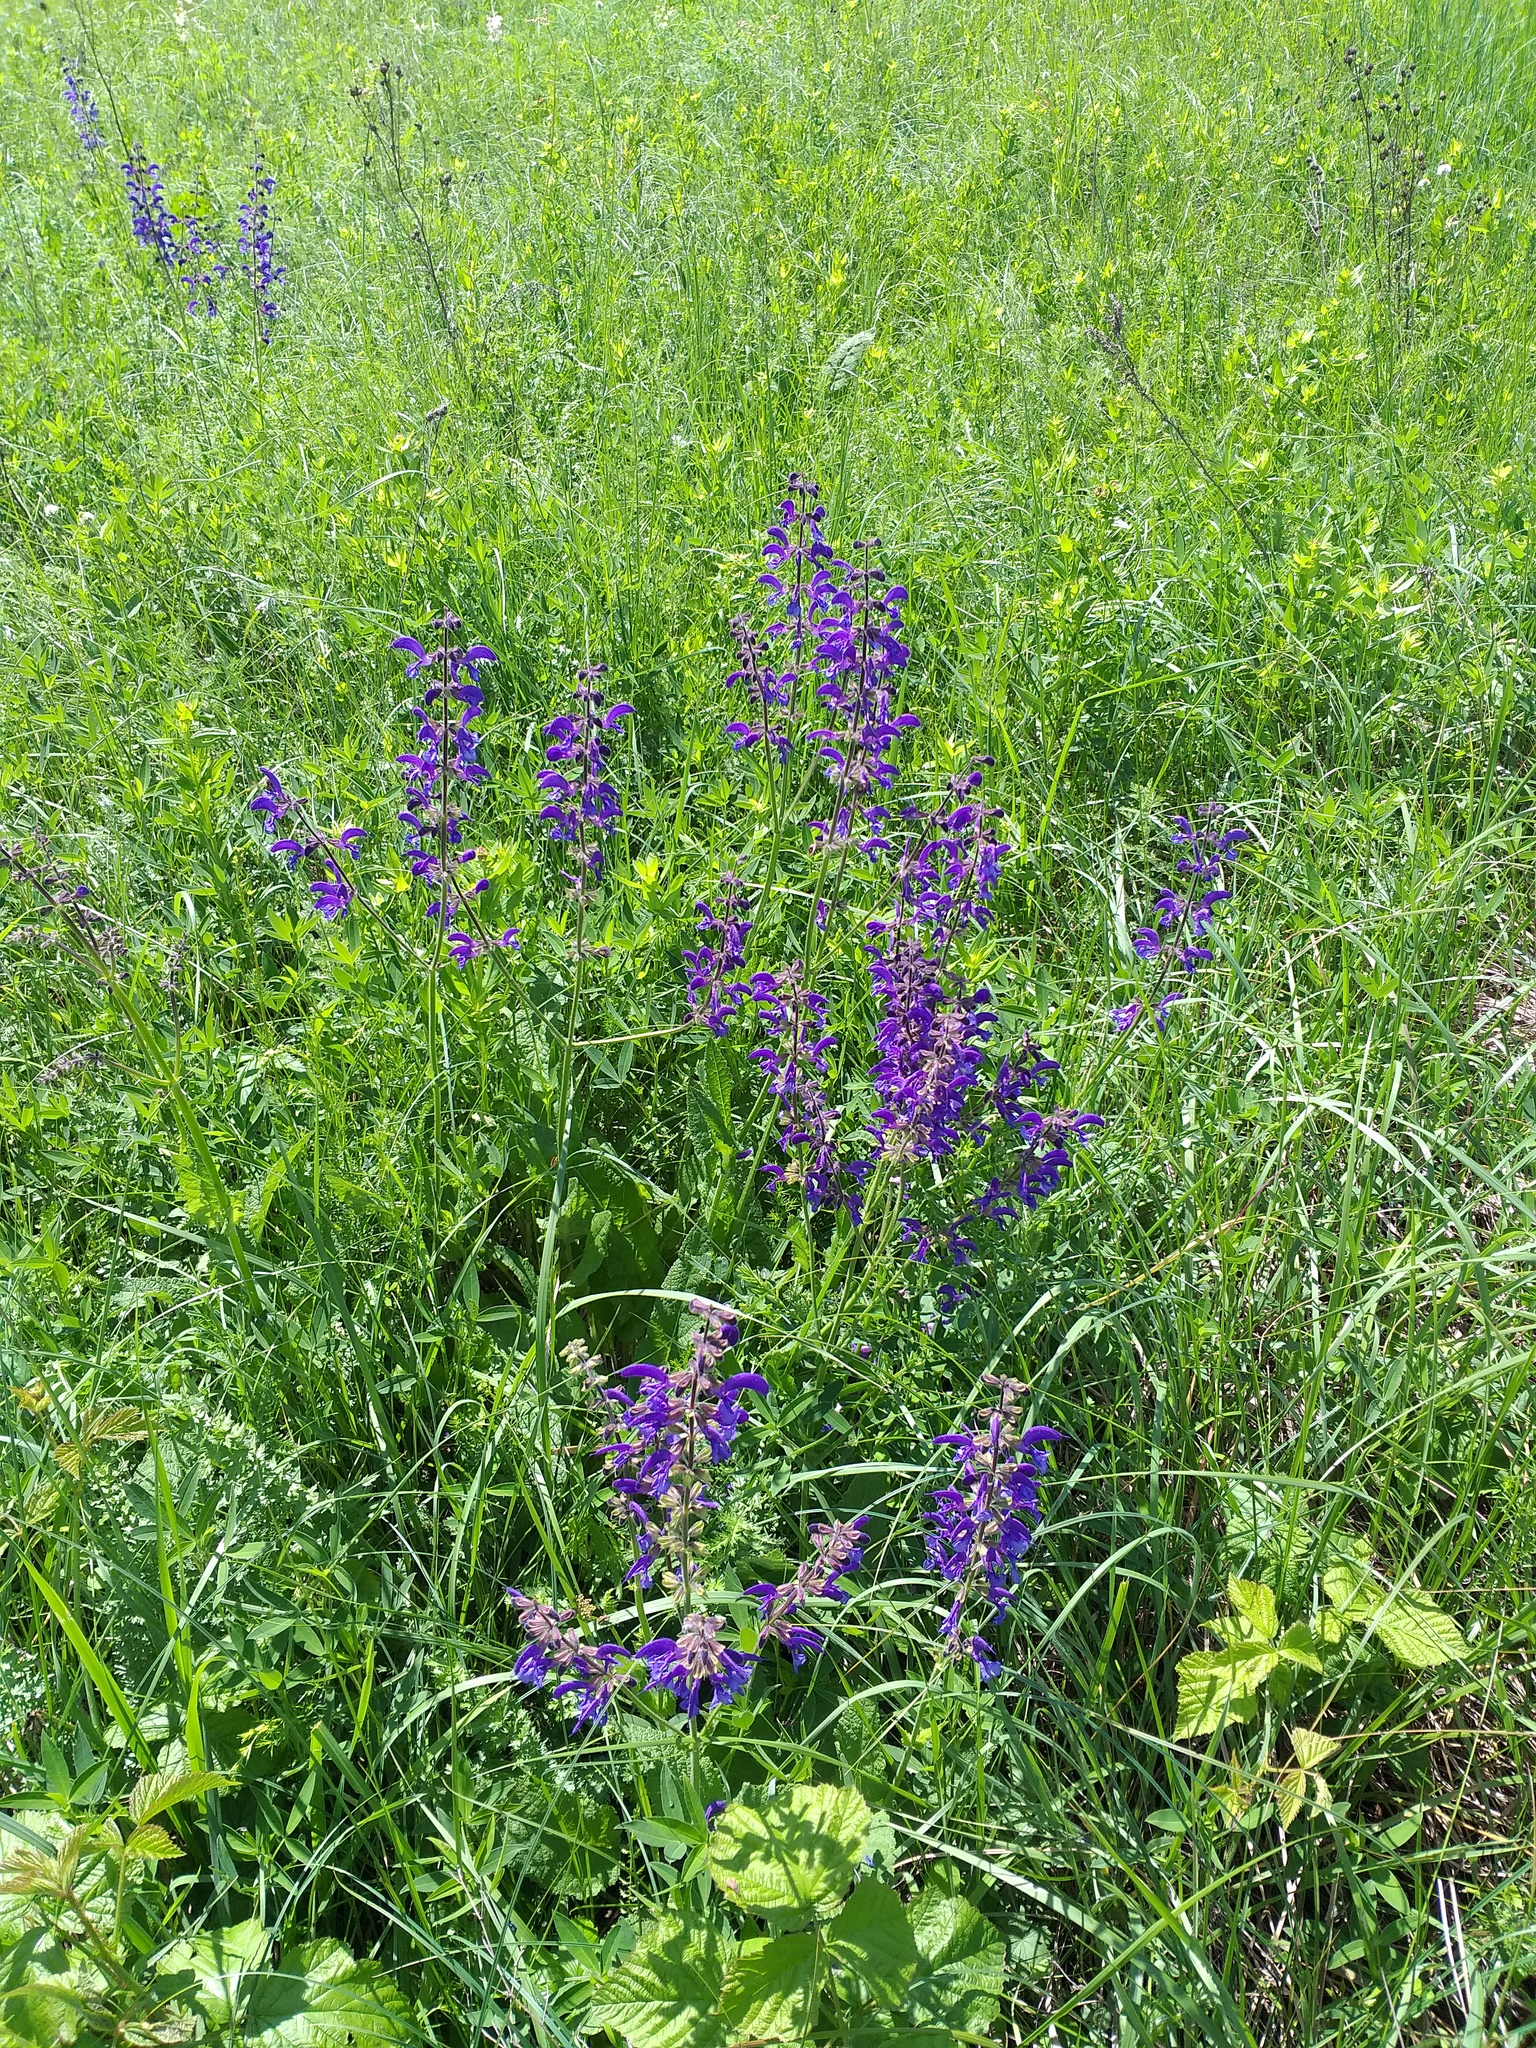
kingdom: Plantae
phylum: Tracheophyta
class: Magnoliopsida
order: Lamiales
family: Lamiaceae
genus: Salvia
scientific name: Salvia pratensis
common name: Meadow sage
